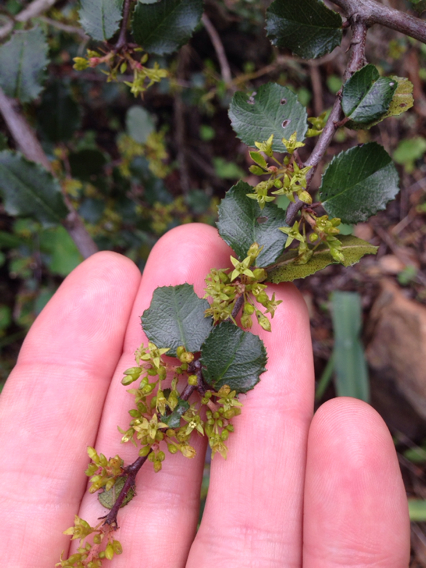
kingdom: Plantae
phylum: Tracheophyta
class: Magnoliopsida
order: Rosales
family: Rhamnaceae
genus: Endotropis
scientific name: Endotropis crocea
